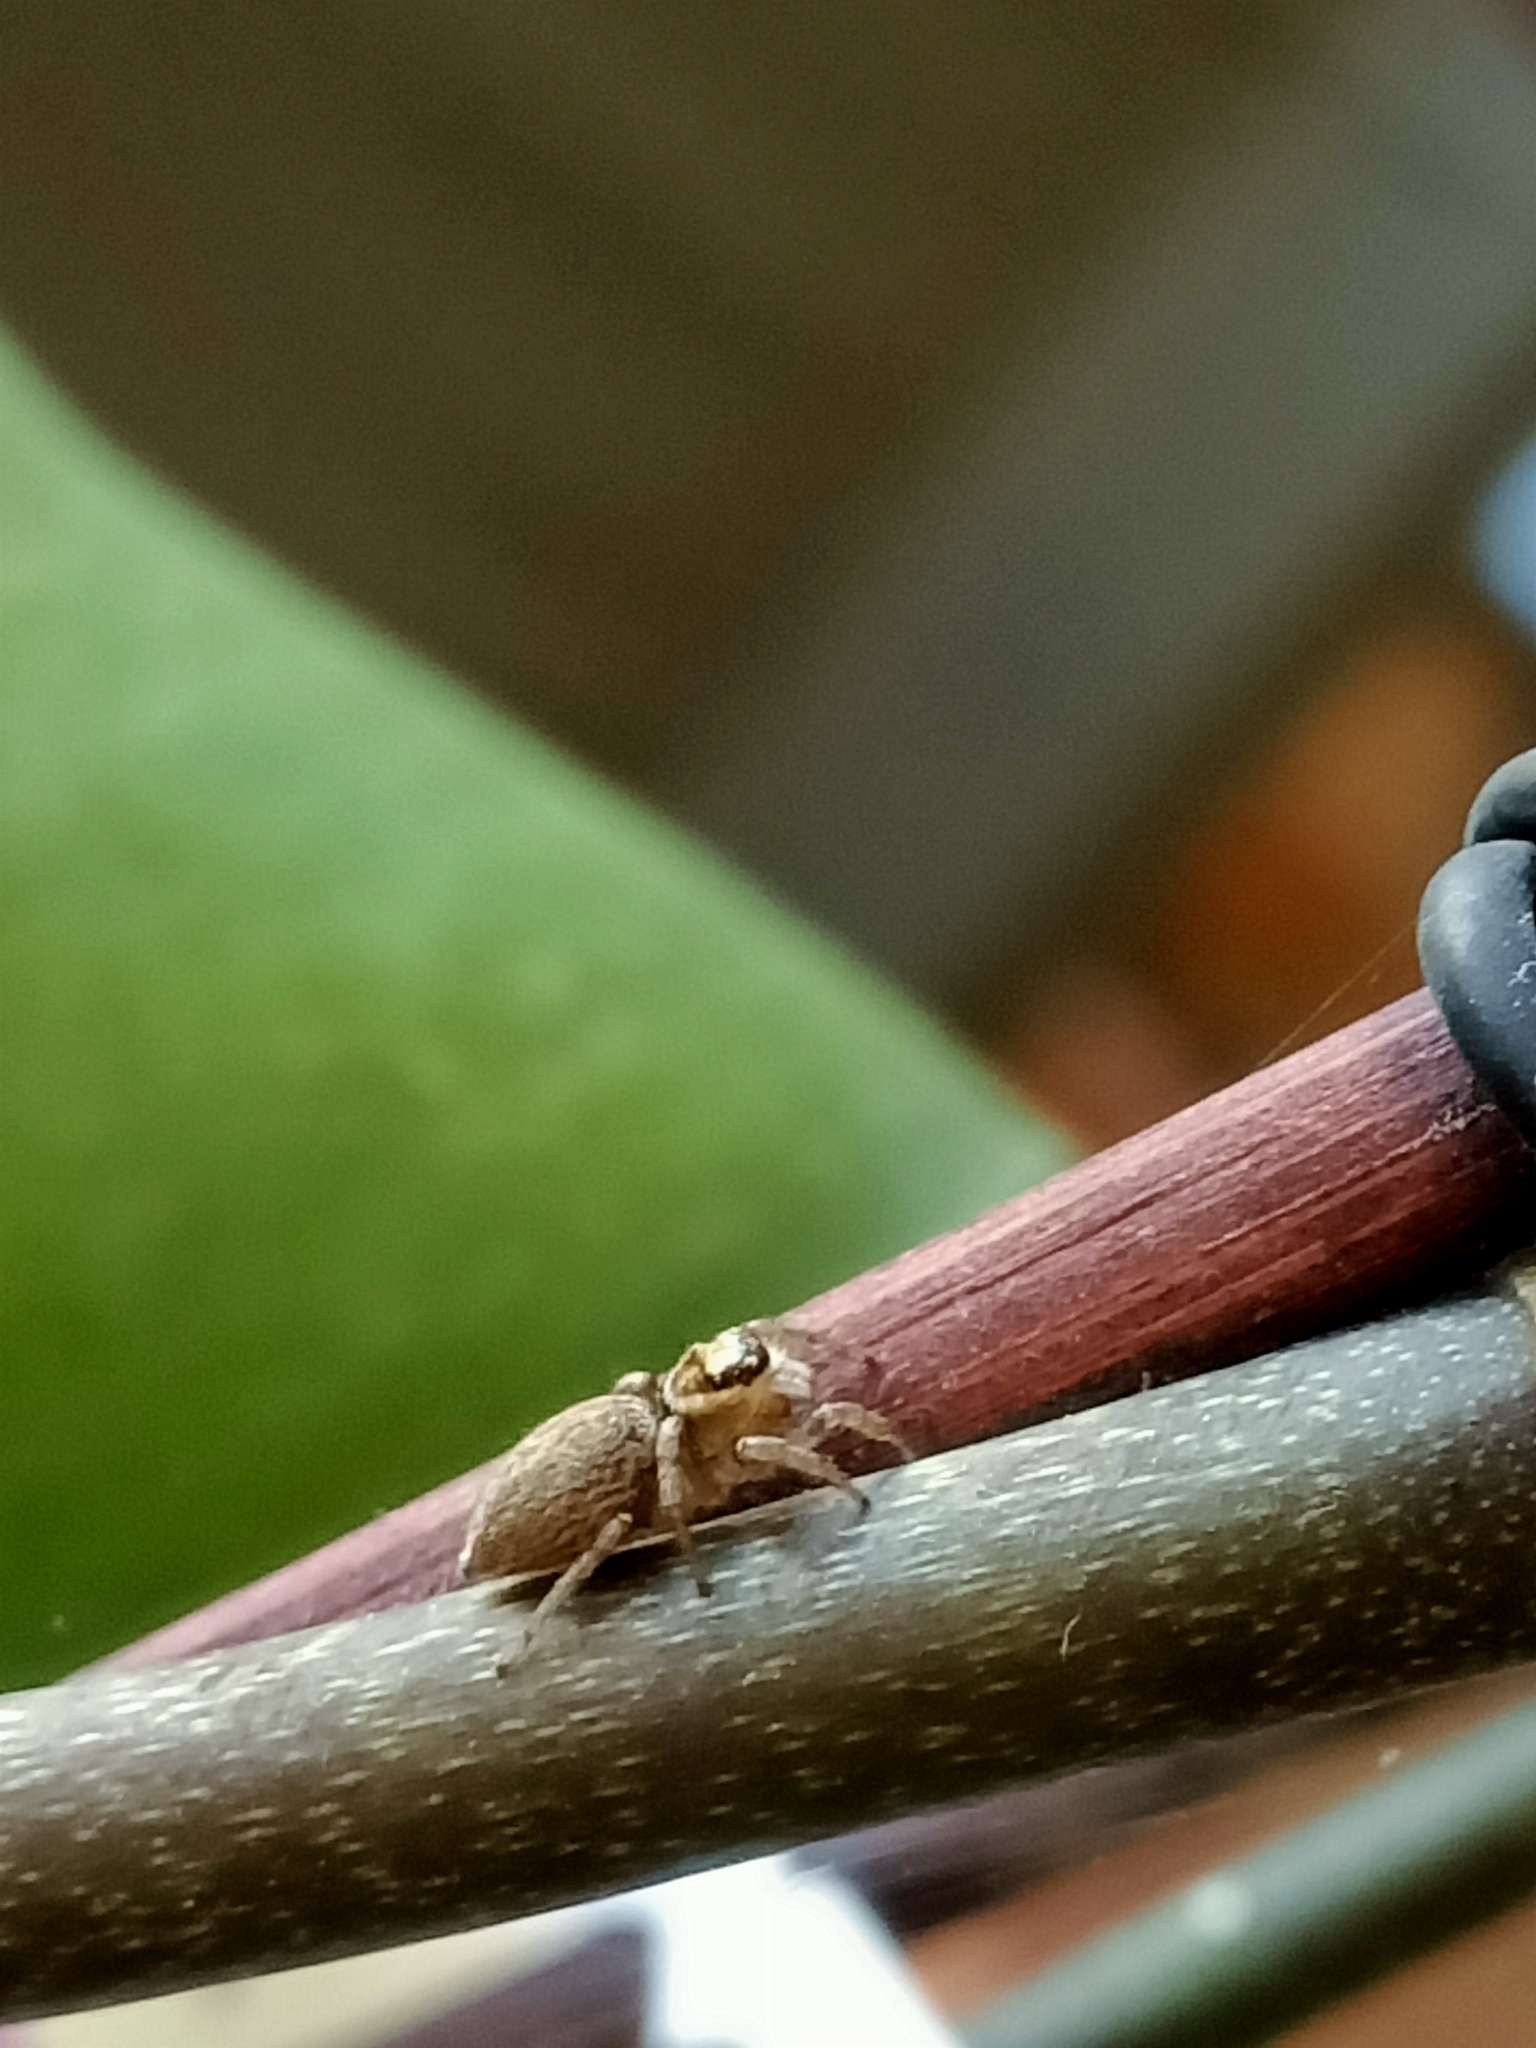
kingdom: Animalia
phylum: Arthropoda
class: Arachnida
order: Araneae
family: Salticidae
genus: Maratus
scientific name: Maratus griseus
